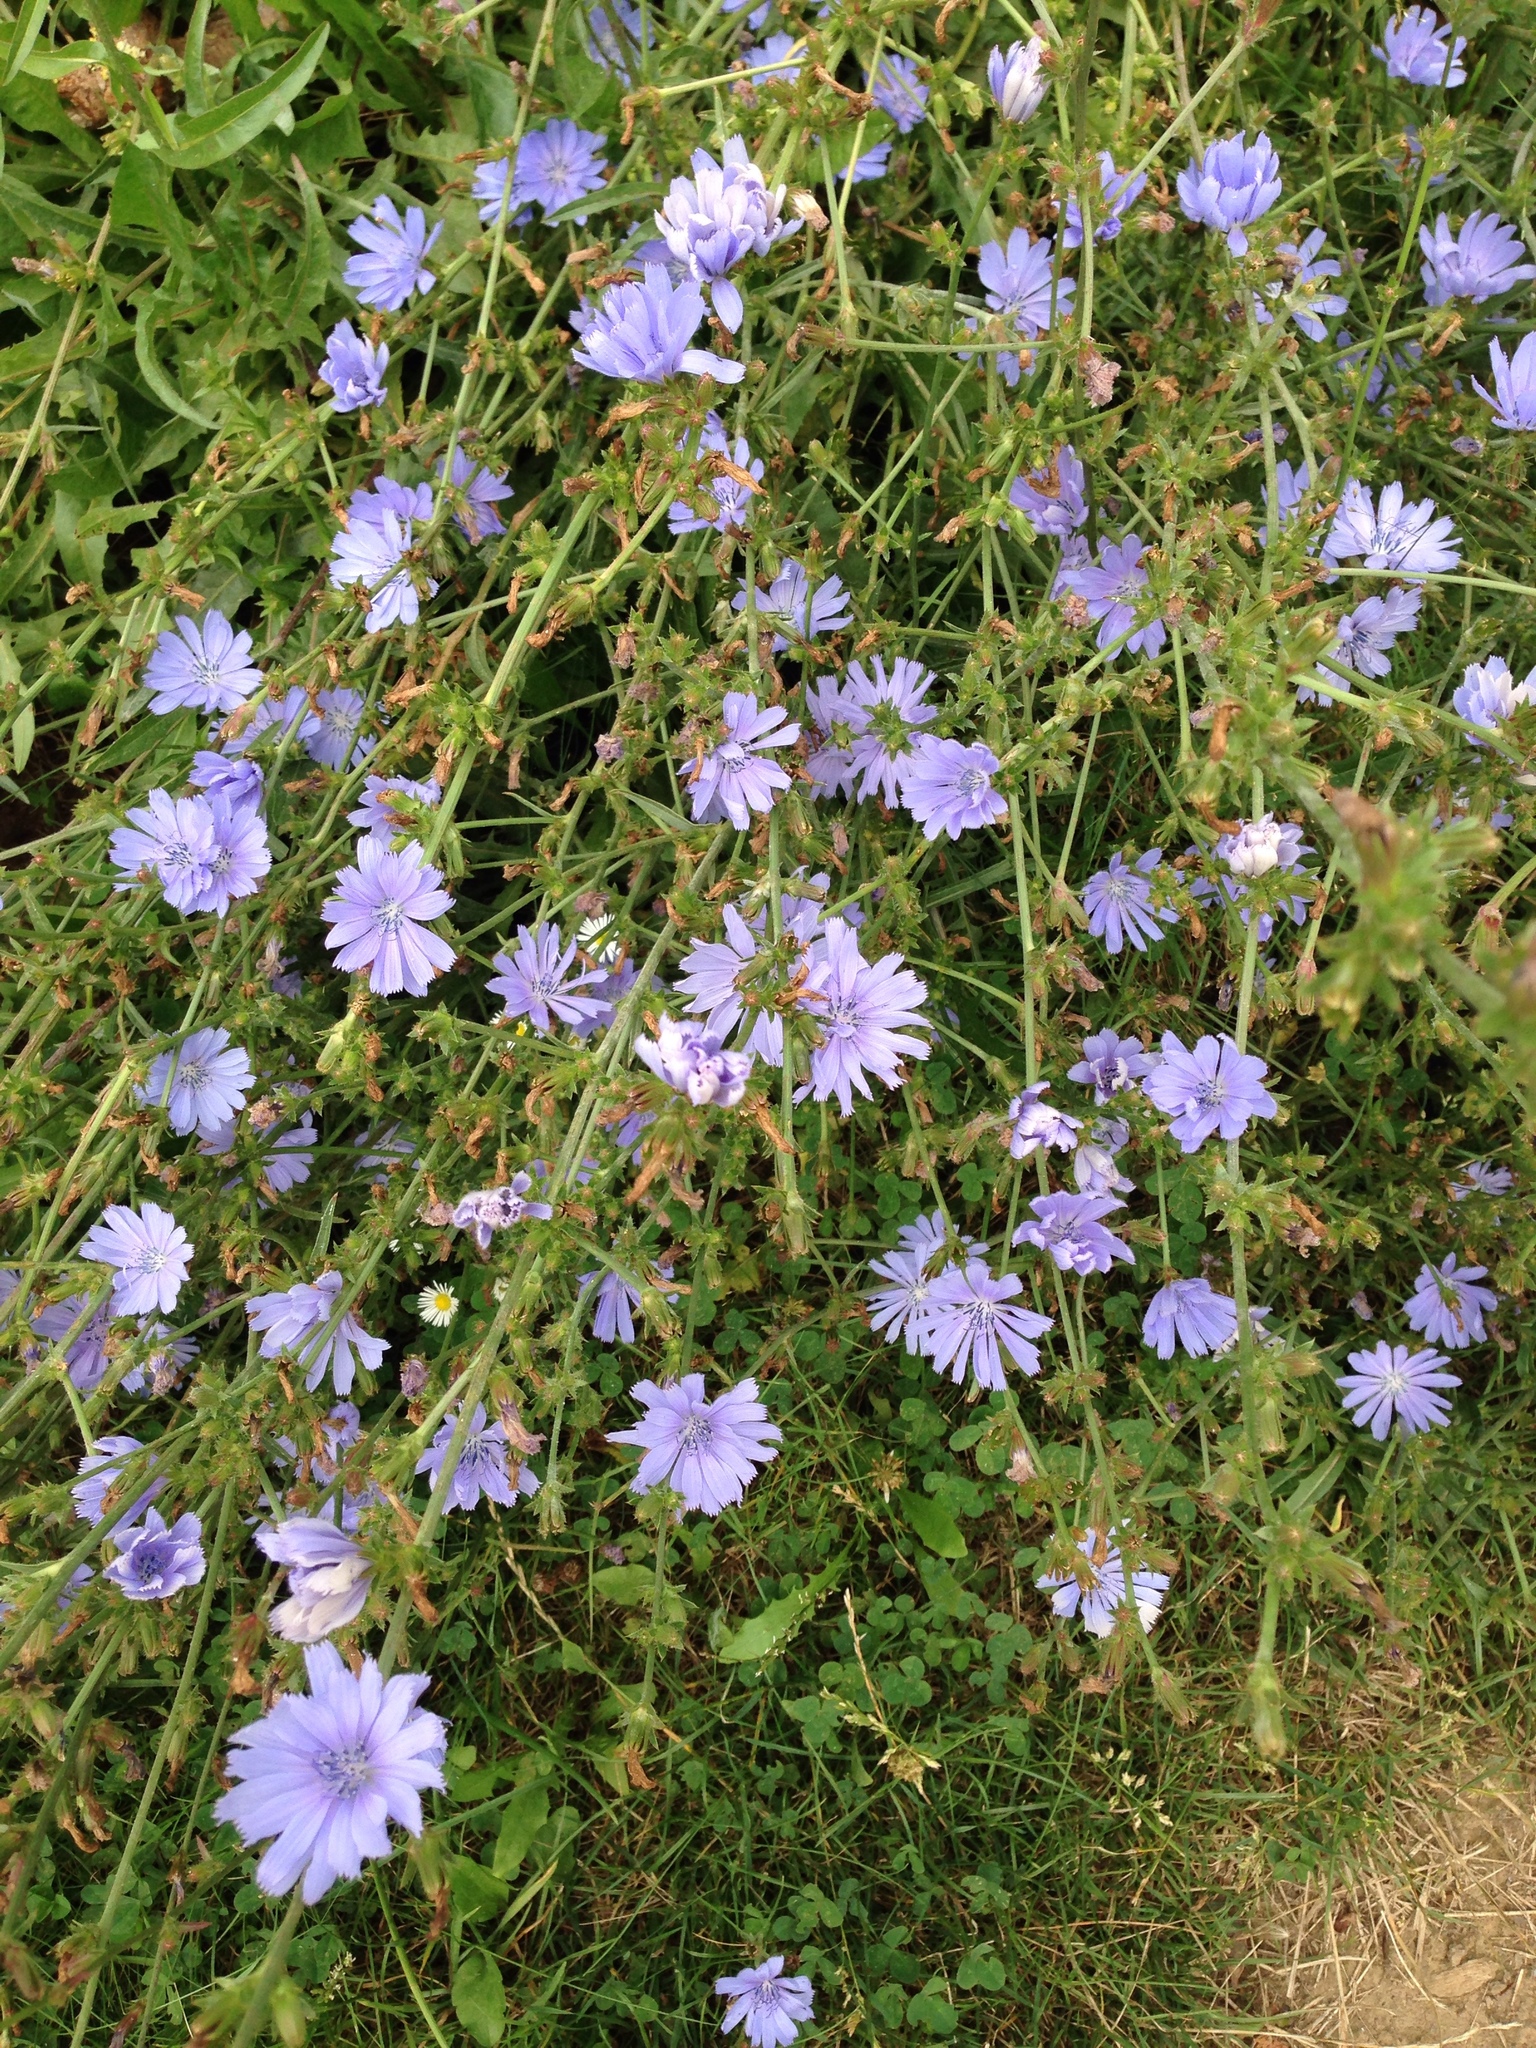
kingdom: Plantae
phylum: Tracheophyta
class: Magnoliopsida
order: Asterales
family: Asteraceae
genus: Cichorium
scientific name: Cichorium intybus
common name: Chicory
